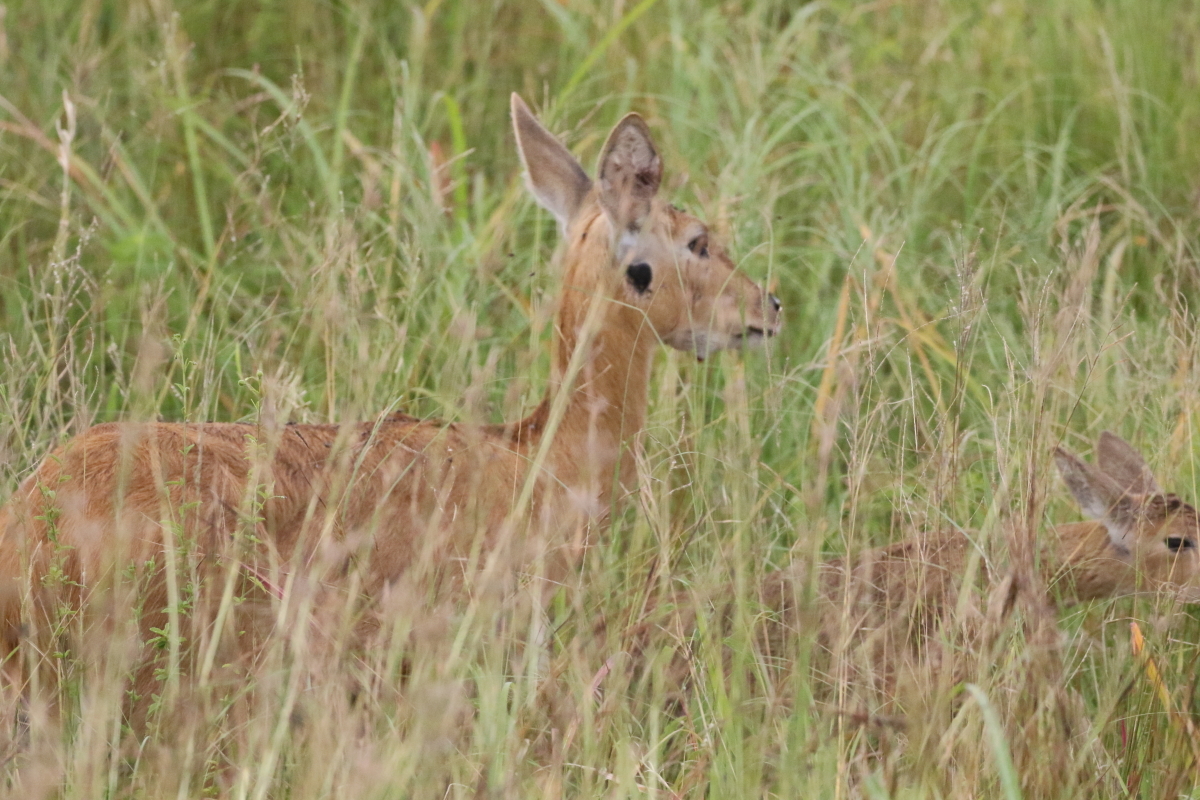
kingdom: Animalia
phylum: Chordata
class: Mammalia
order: Artiodactyla
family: Bovidae
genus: Redunca
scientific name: Redunca redunca
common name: Common reedbuck
